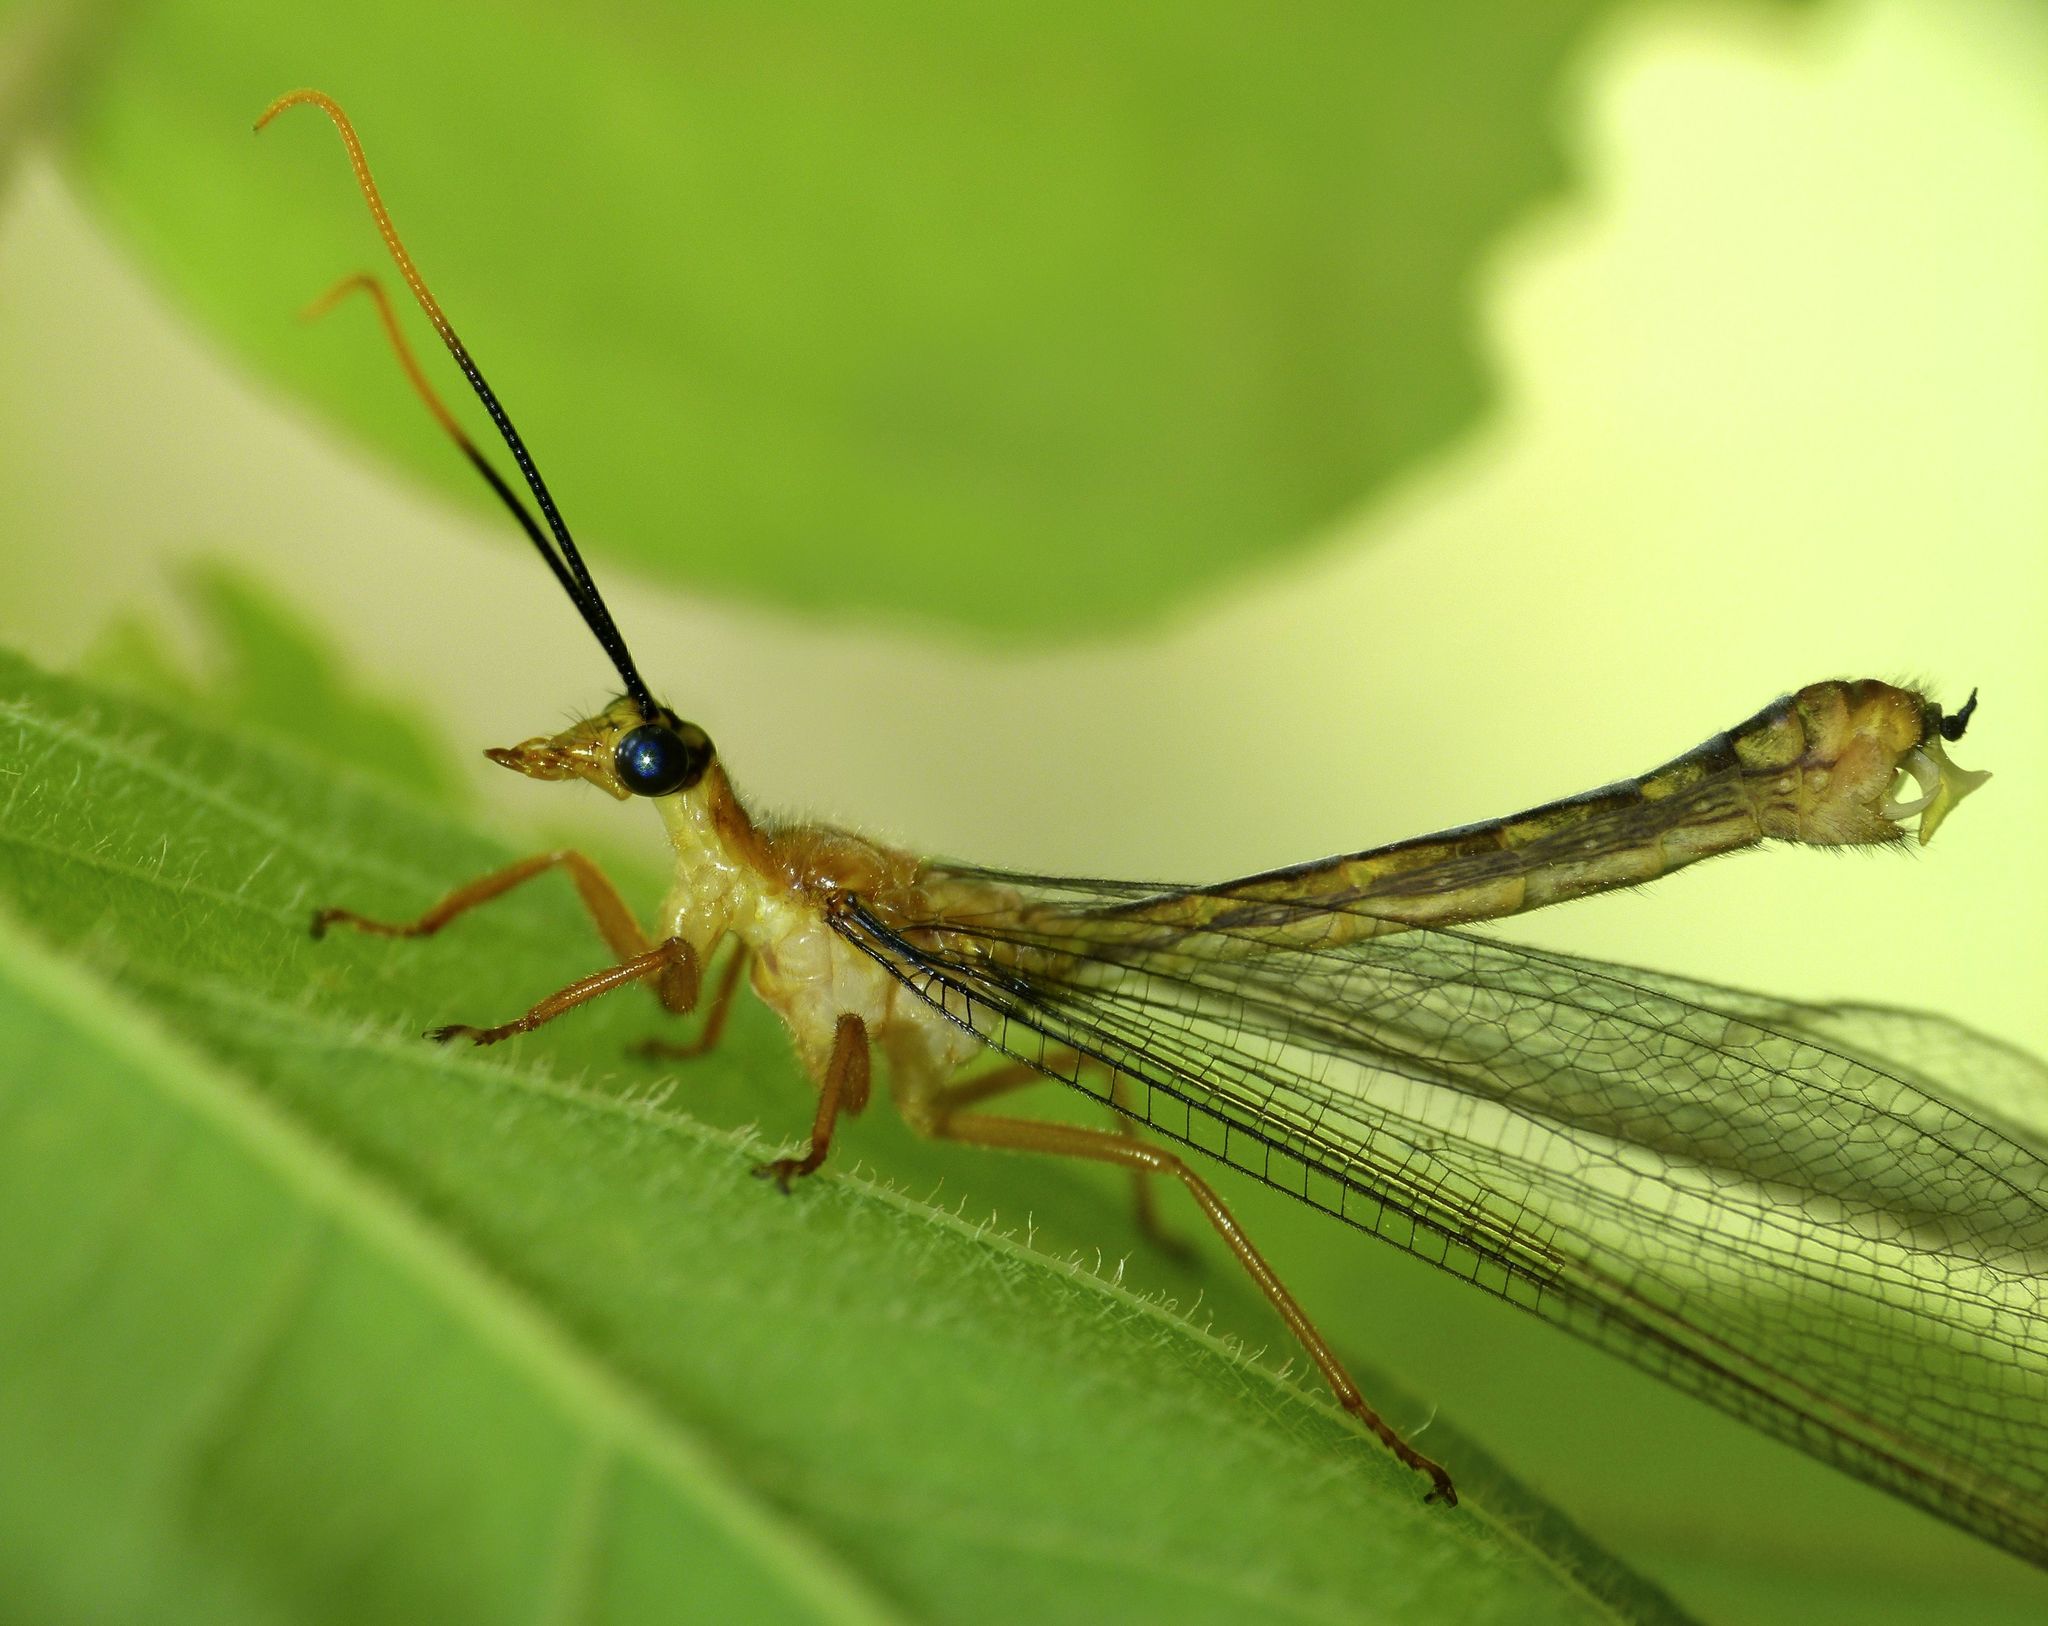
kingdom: Animalia
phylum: Arthropoda
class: Insecta
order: Neuroptera
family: Nymphidae
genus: Nymphes
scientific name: Nymphes myrmeleonoides
